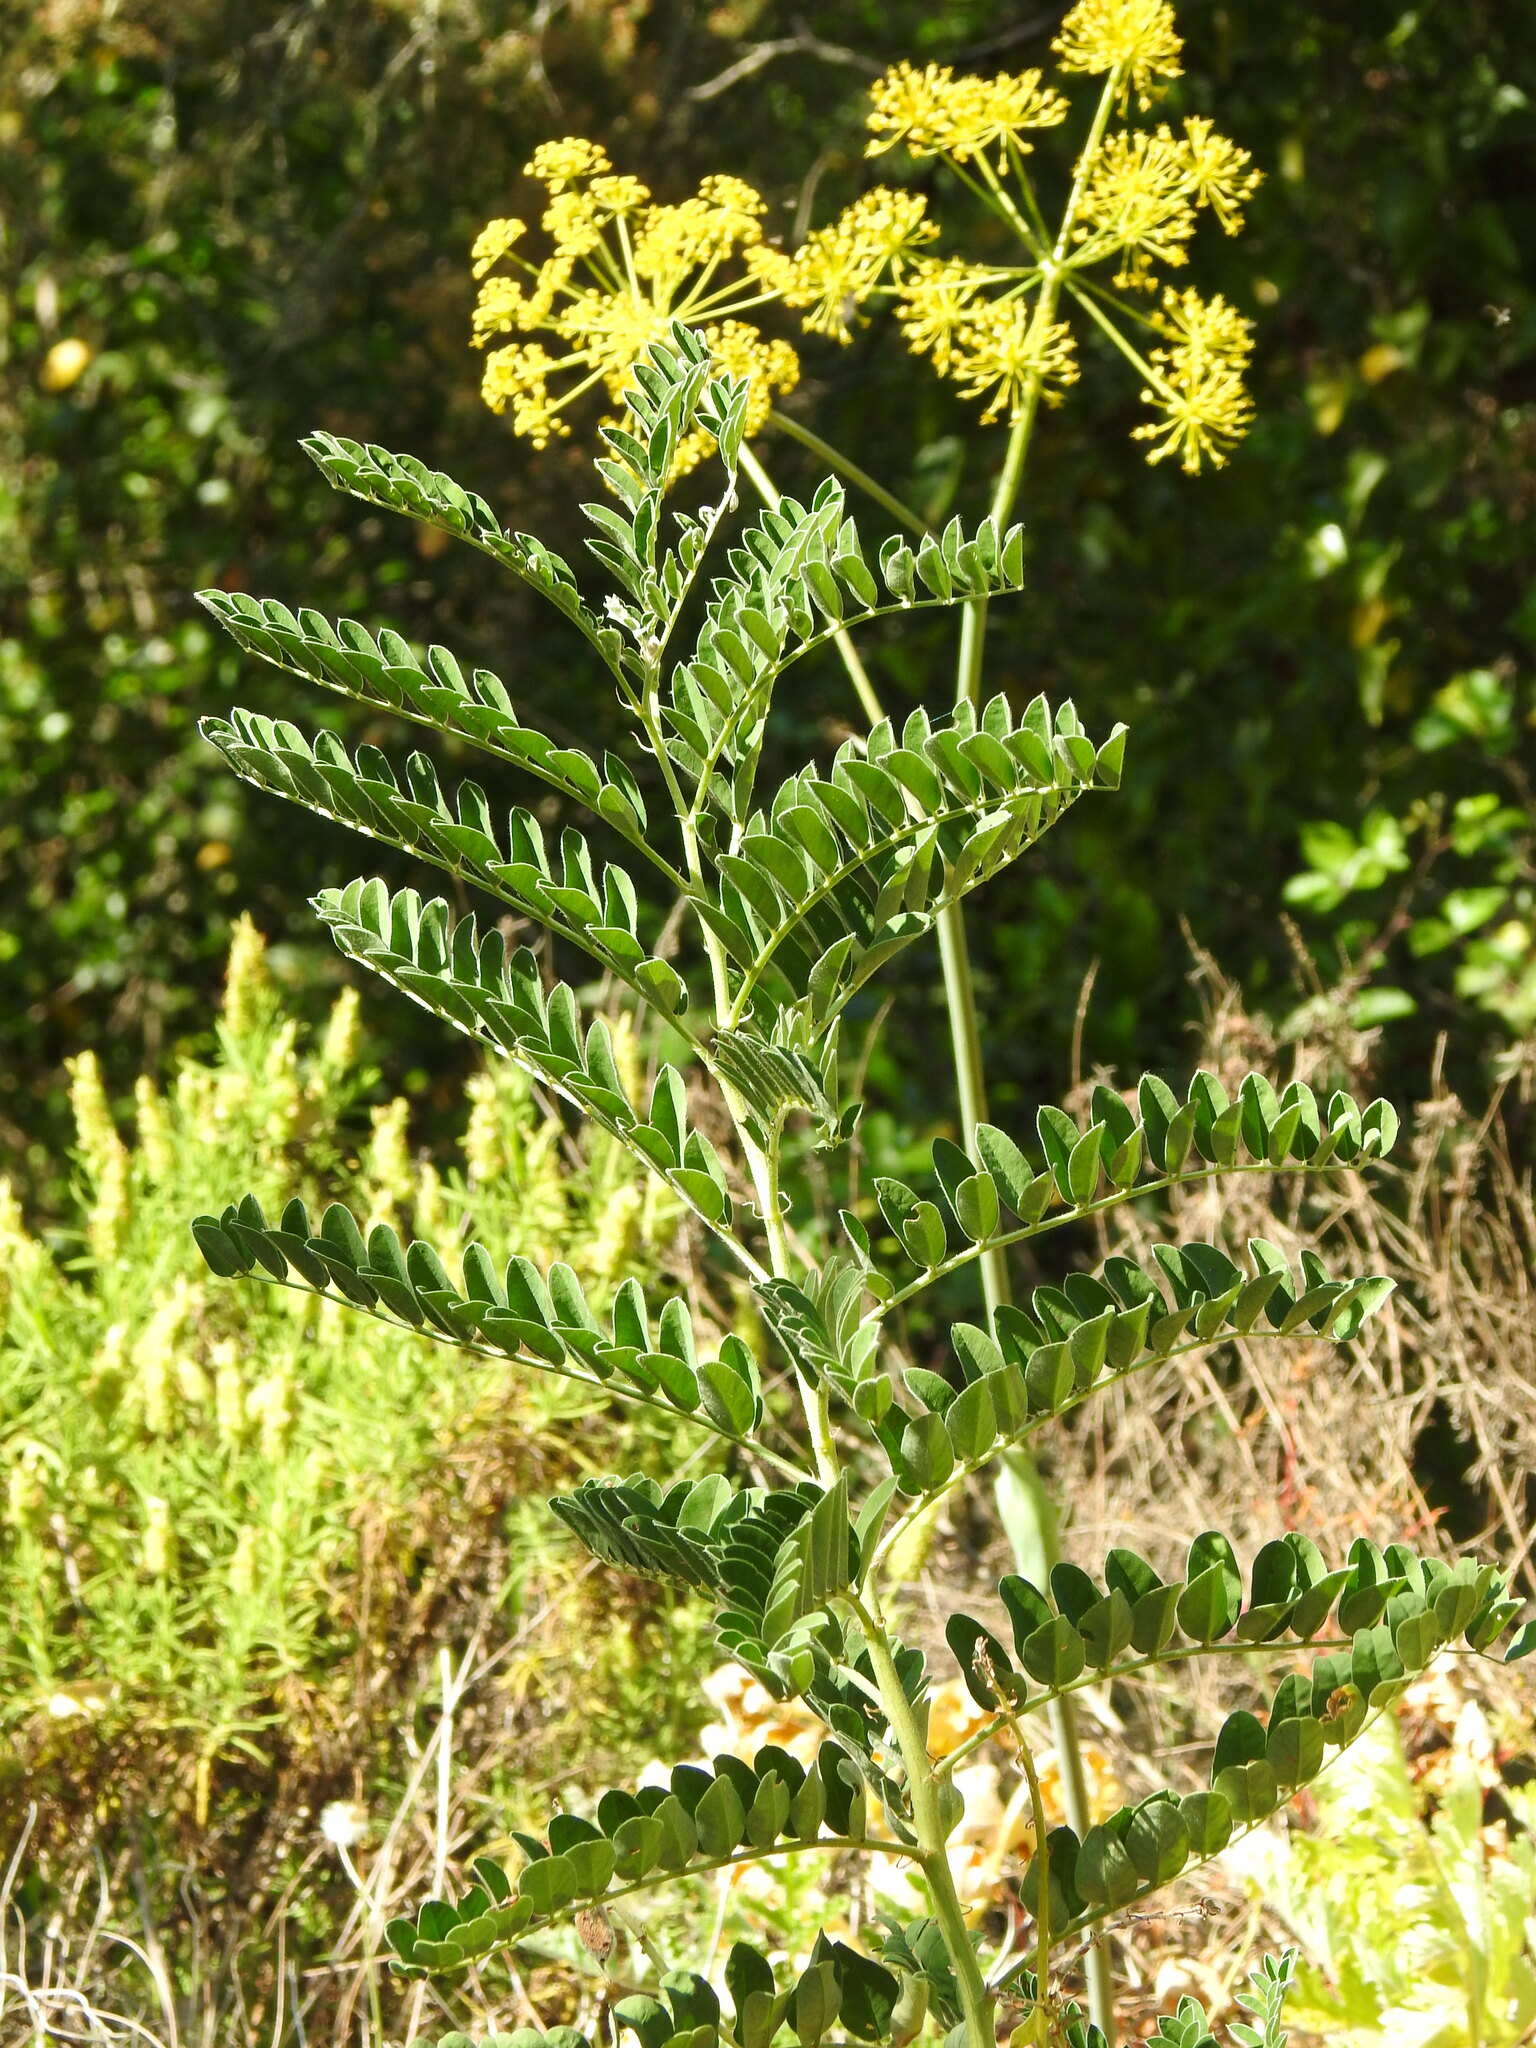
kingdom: Plantae
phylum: Tracheophyta
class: Magnoliopsida
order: Fabales
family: Fabaceae
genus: Erophaca
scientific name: Erophaca baetica
